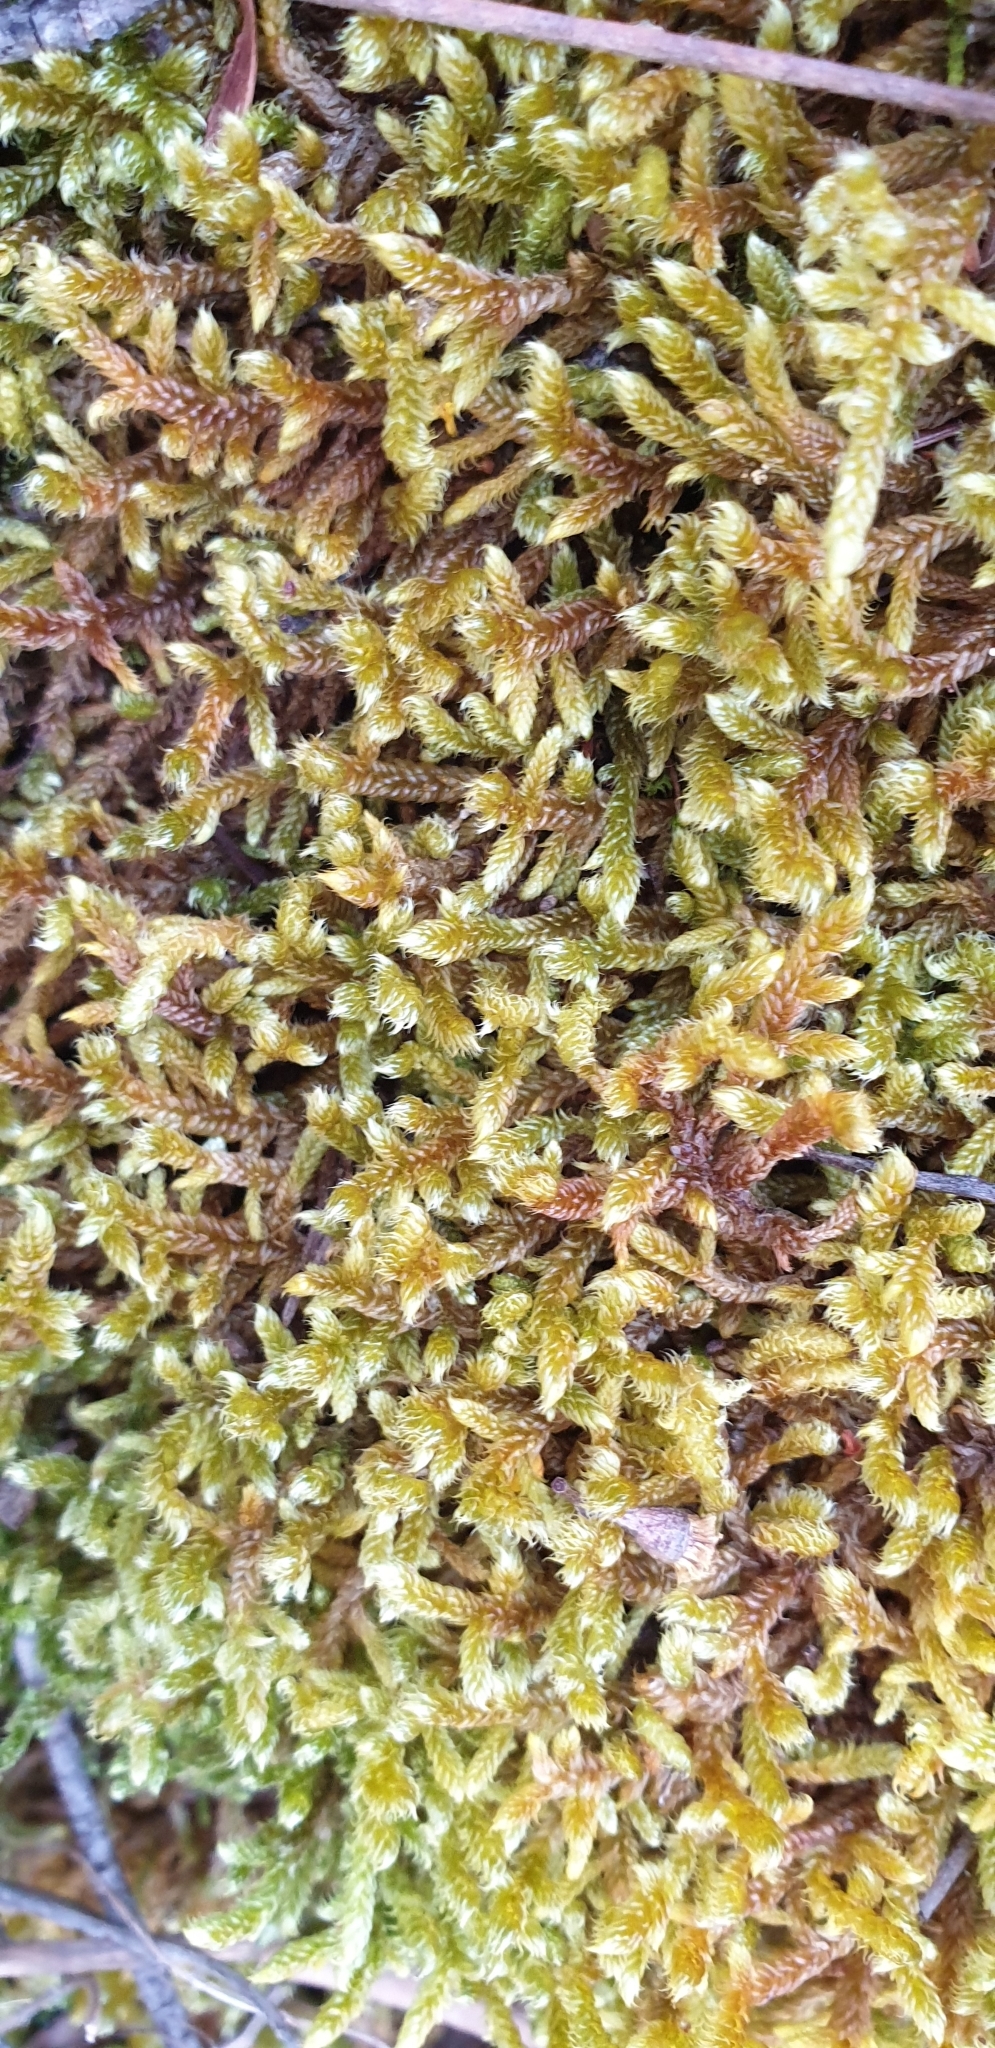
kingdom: Plantae
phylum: Bryophyta
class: Bryopsida
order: Hypnales
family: Hypnaceae
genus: Hypnum
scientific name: Hypnum cupressiforme
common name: Cypress-leaved plait-moss
